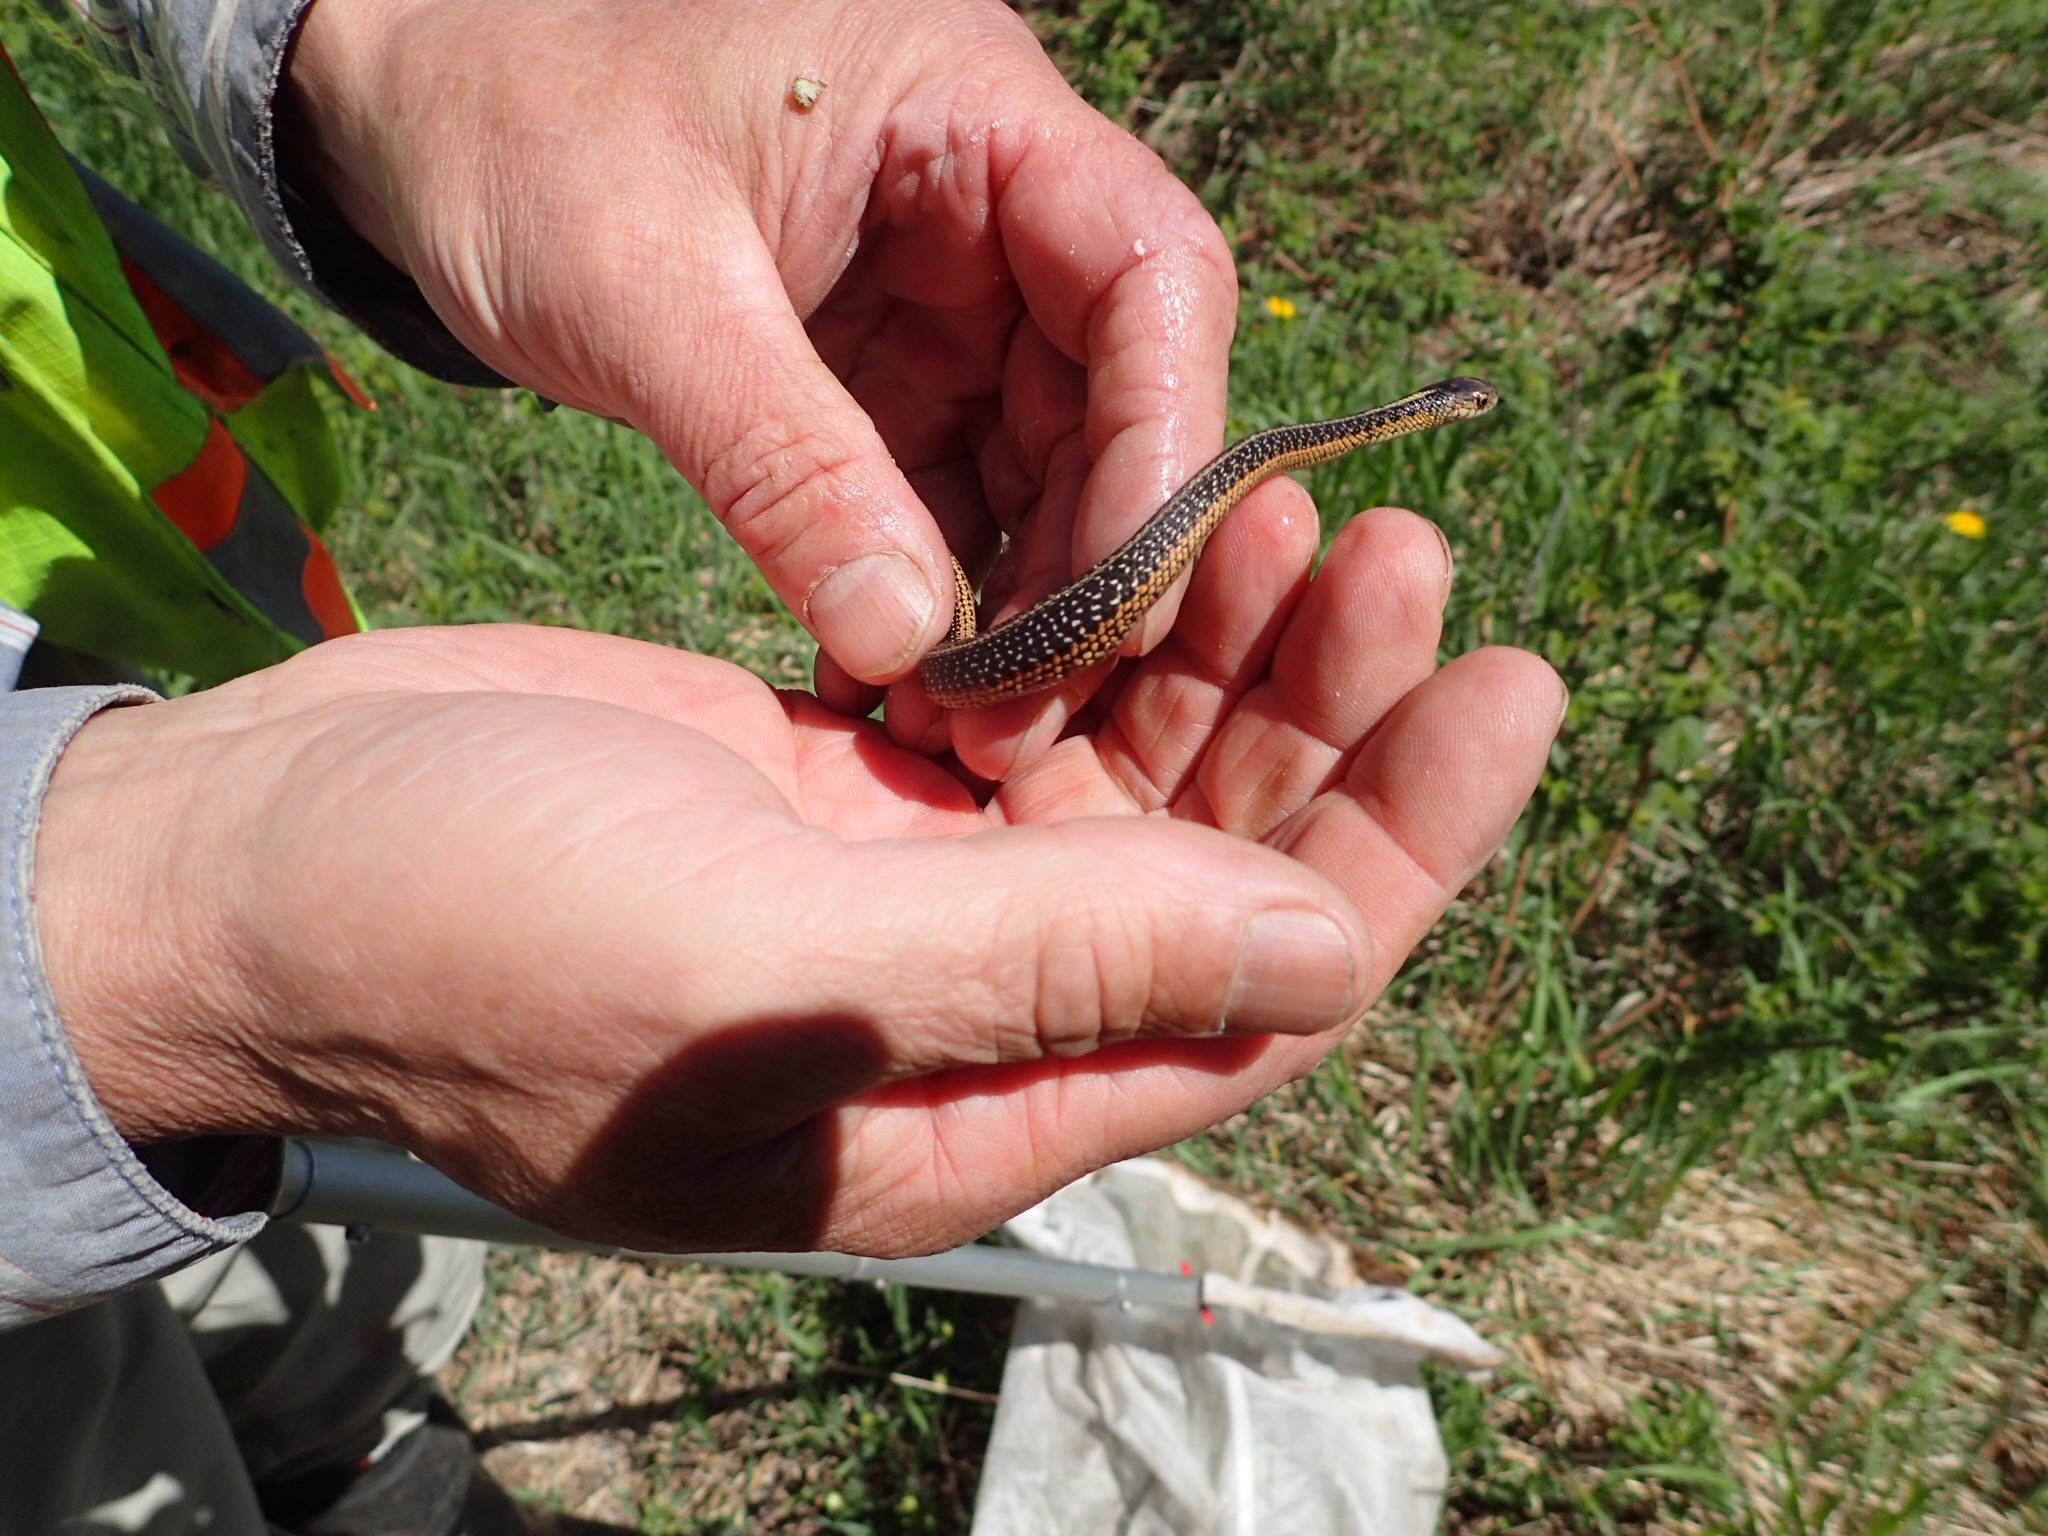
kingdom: Animalia
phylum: Chordata
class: Squamata
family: Colubridae
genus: Thamnophis
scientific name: Thamnophis sirtalis
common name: Common garter snake
